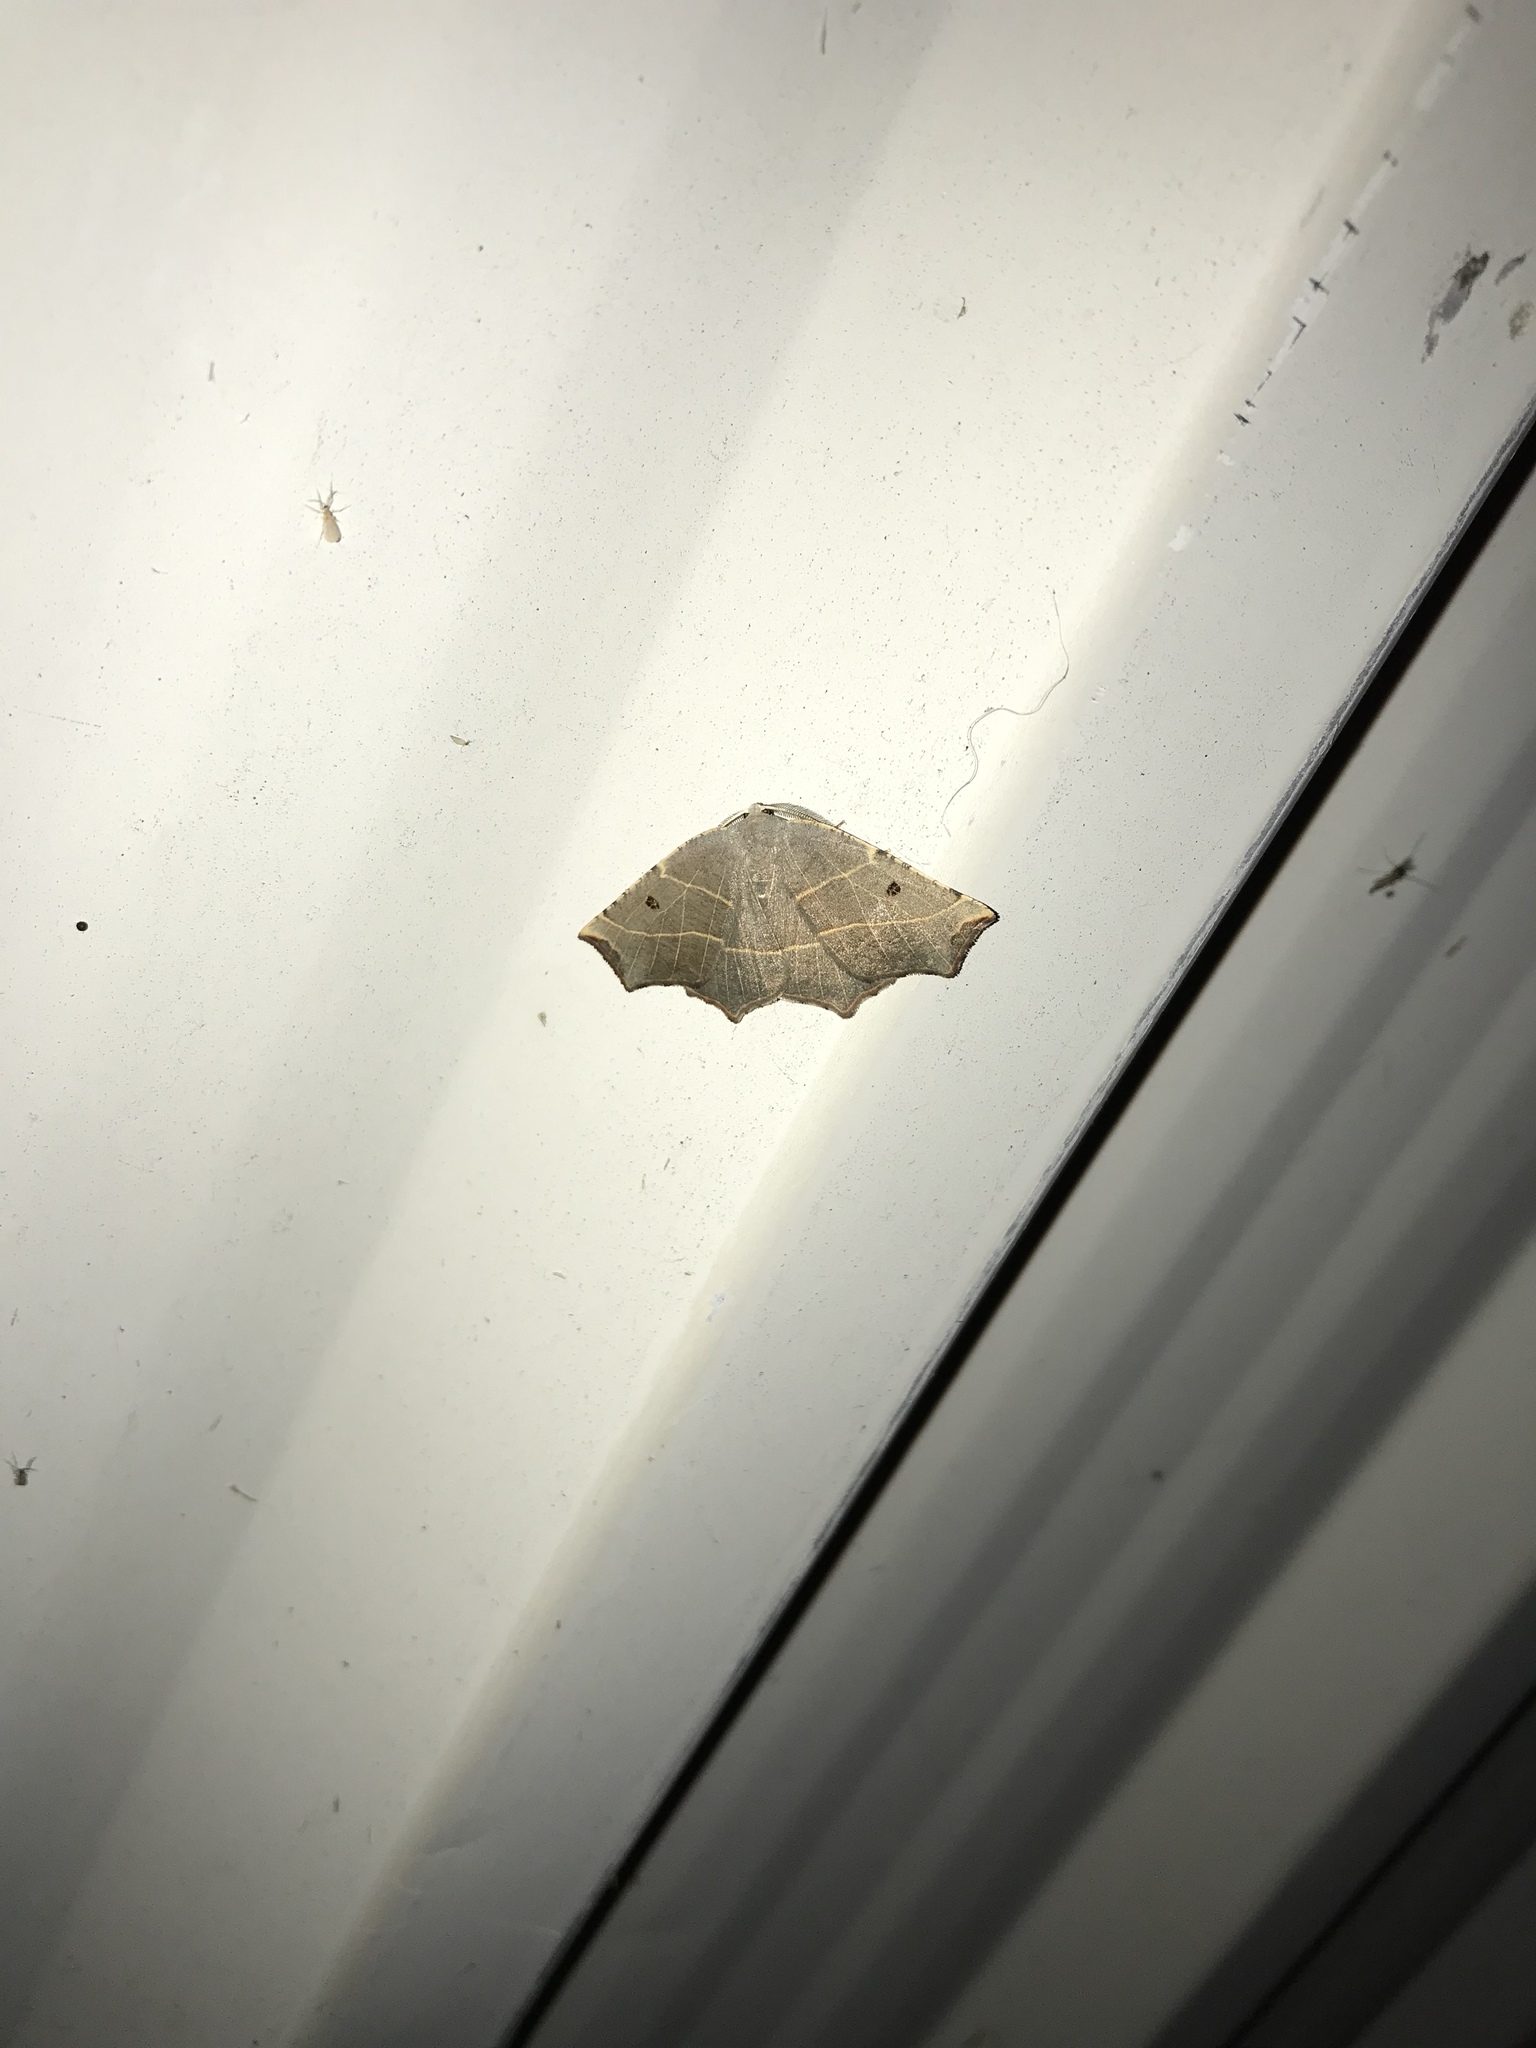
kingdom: Animalia
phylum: Arthropoda
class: Insecta
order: Lepidoptera
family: Geometridae
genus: Metanema
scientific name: Metanema inatomaria
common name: Pale metanema
